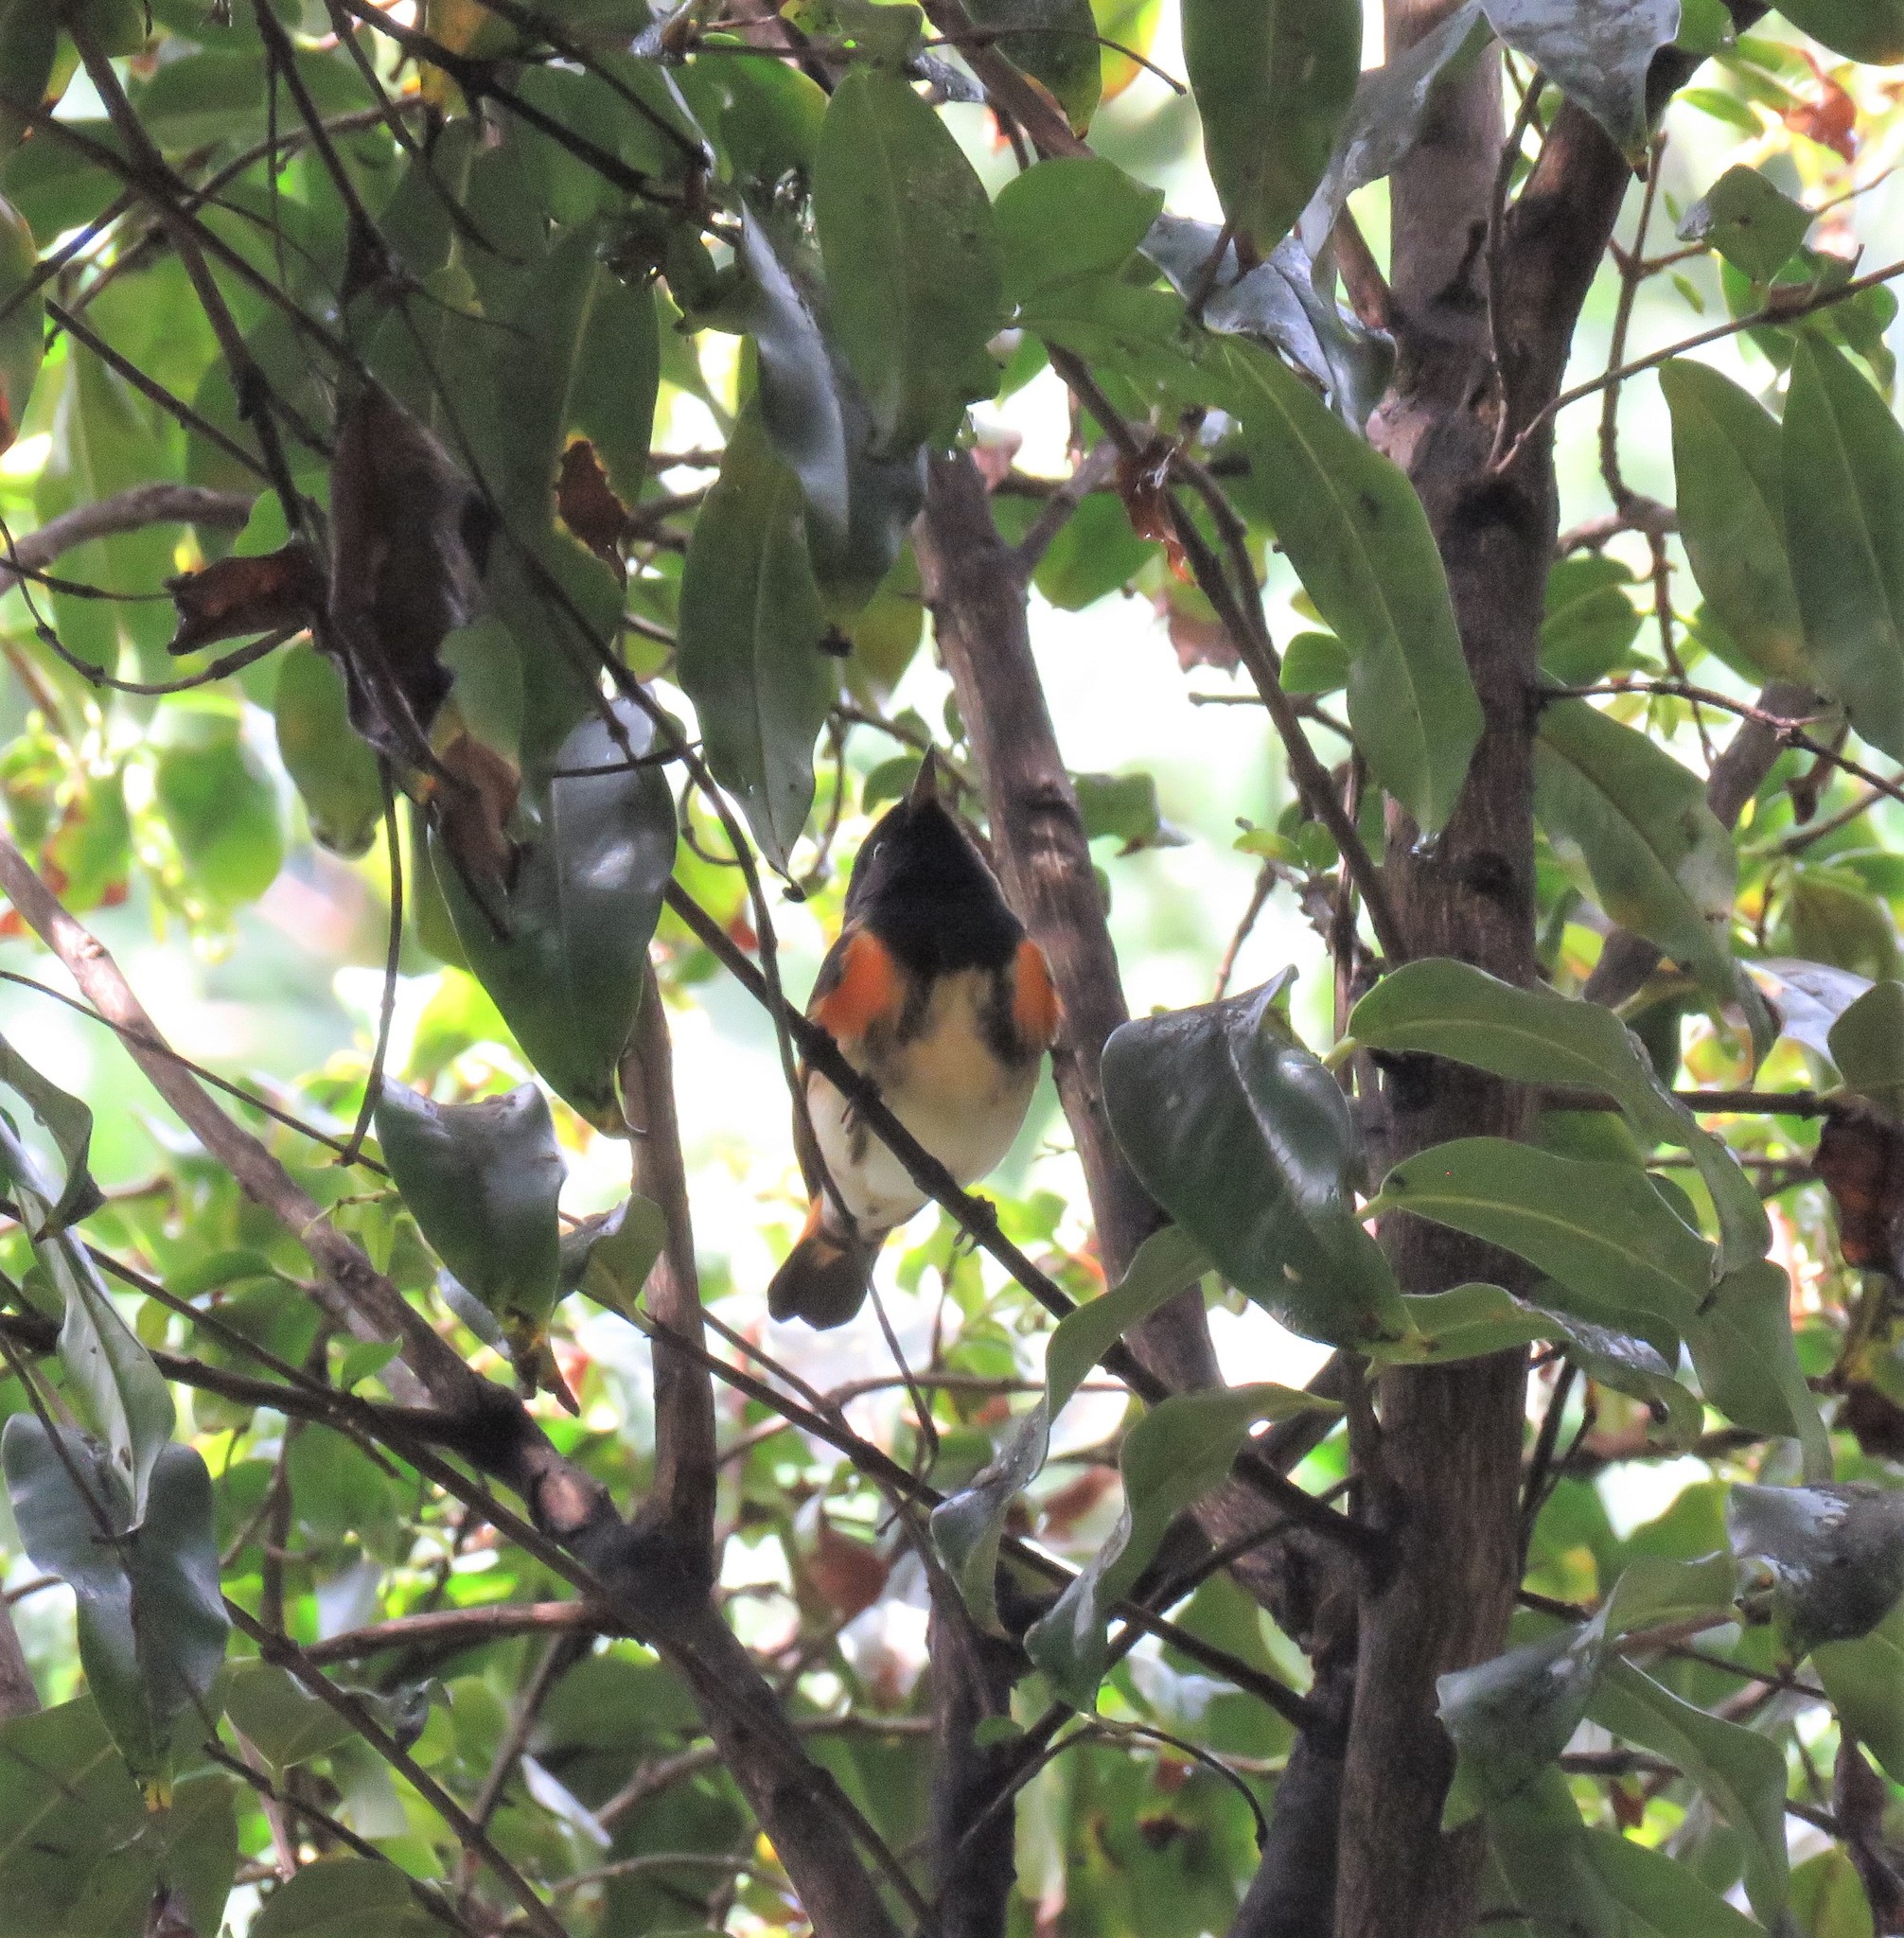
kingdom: Animalia
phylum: Chordata
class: Aves
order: Passeriformes
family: Parulidae
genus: Setophaga
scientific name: Setophaga ruticilla
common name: American redstart
